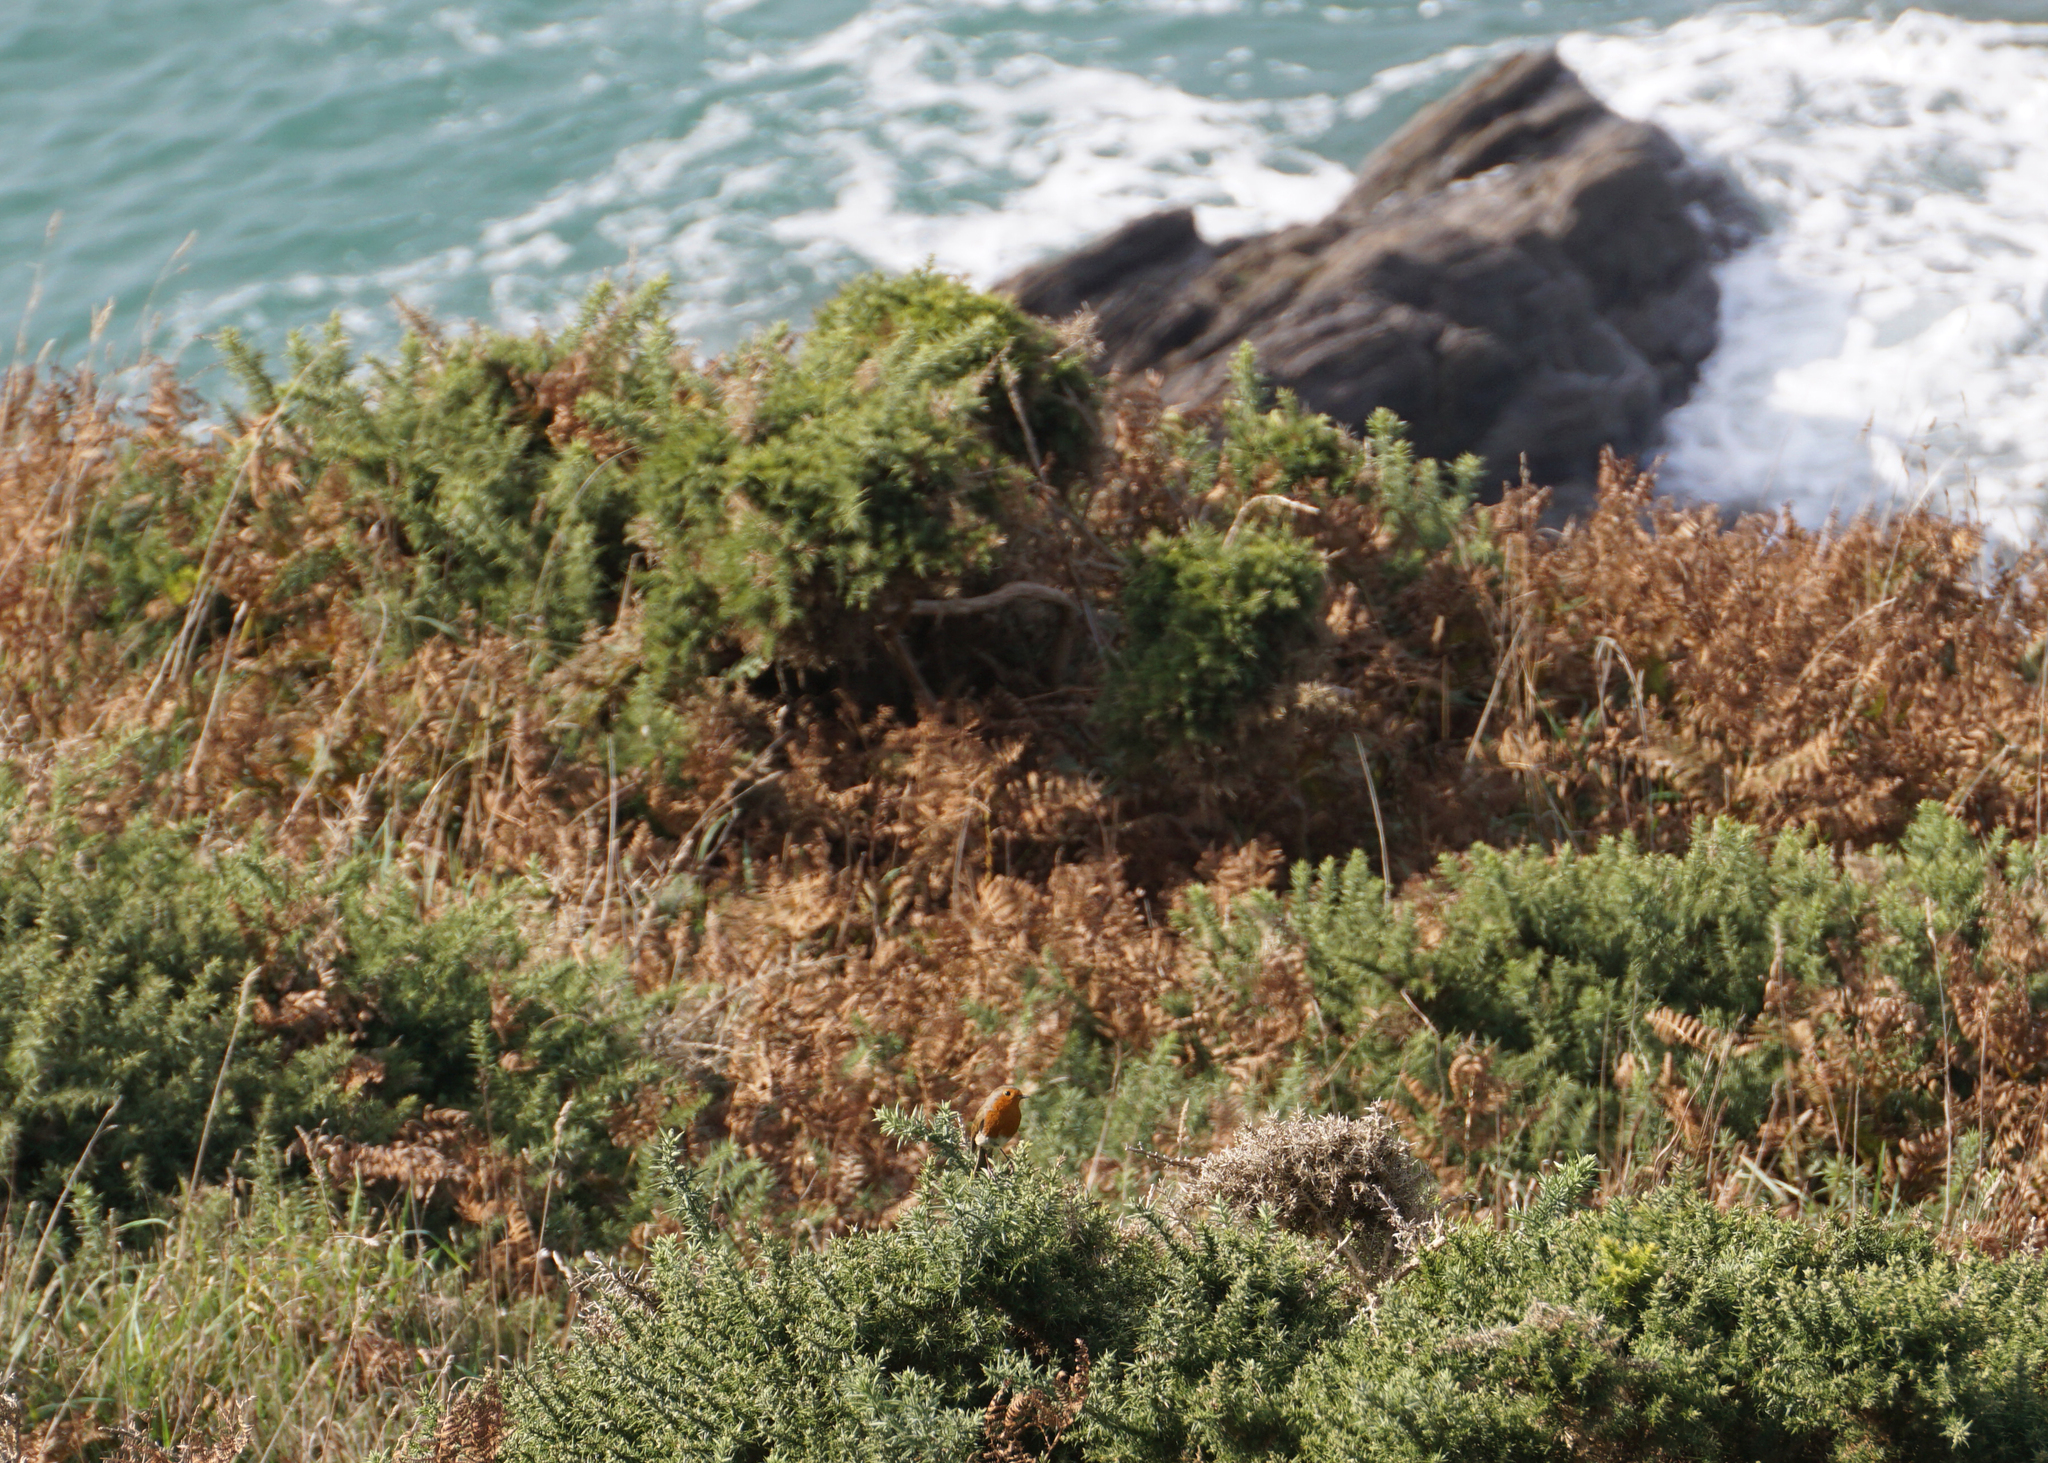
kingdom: Animalia
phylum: Chordata
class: Aves
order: Passeriformes
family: Muscicapidae
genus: Erithacus
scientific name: Erithacus rubecula
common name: European robin
